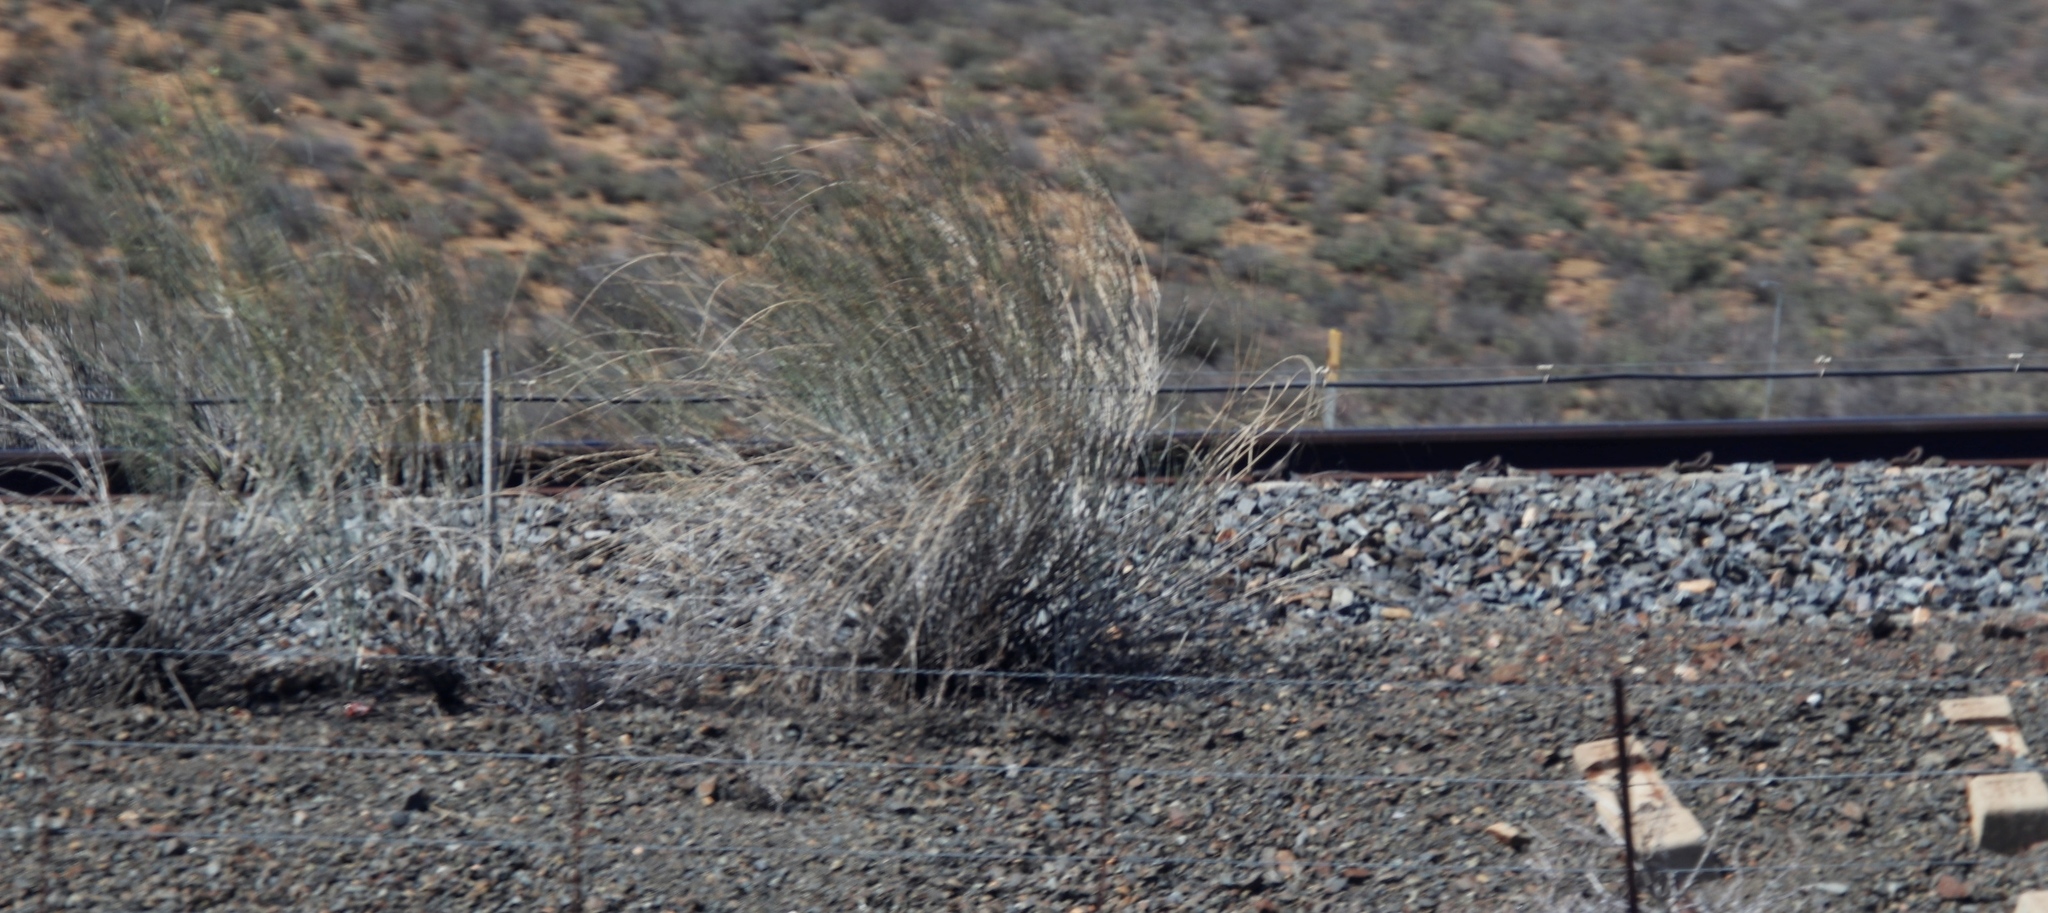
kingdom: Plantae
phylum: Tracheophyta
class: Magnoliopsida
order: Gentianales
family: Apocynaceae
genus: Gomphocarpus
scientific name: Gomphocarpus filiformis
